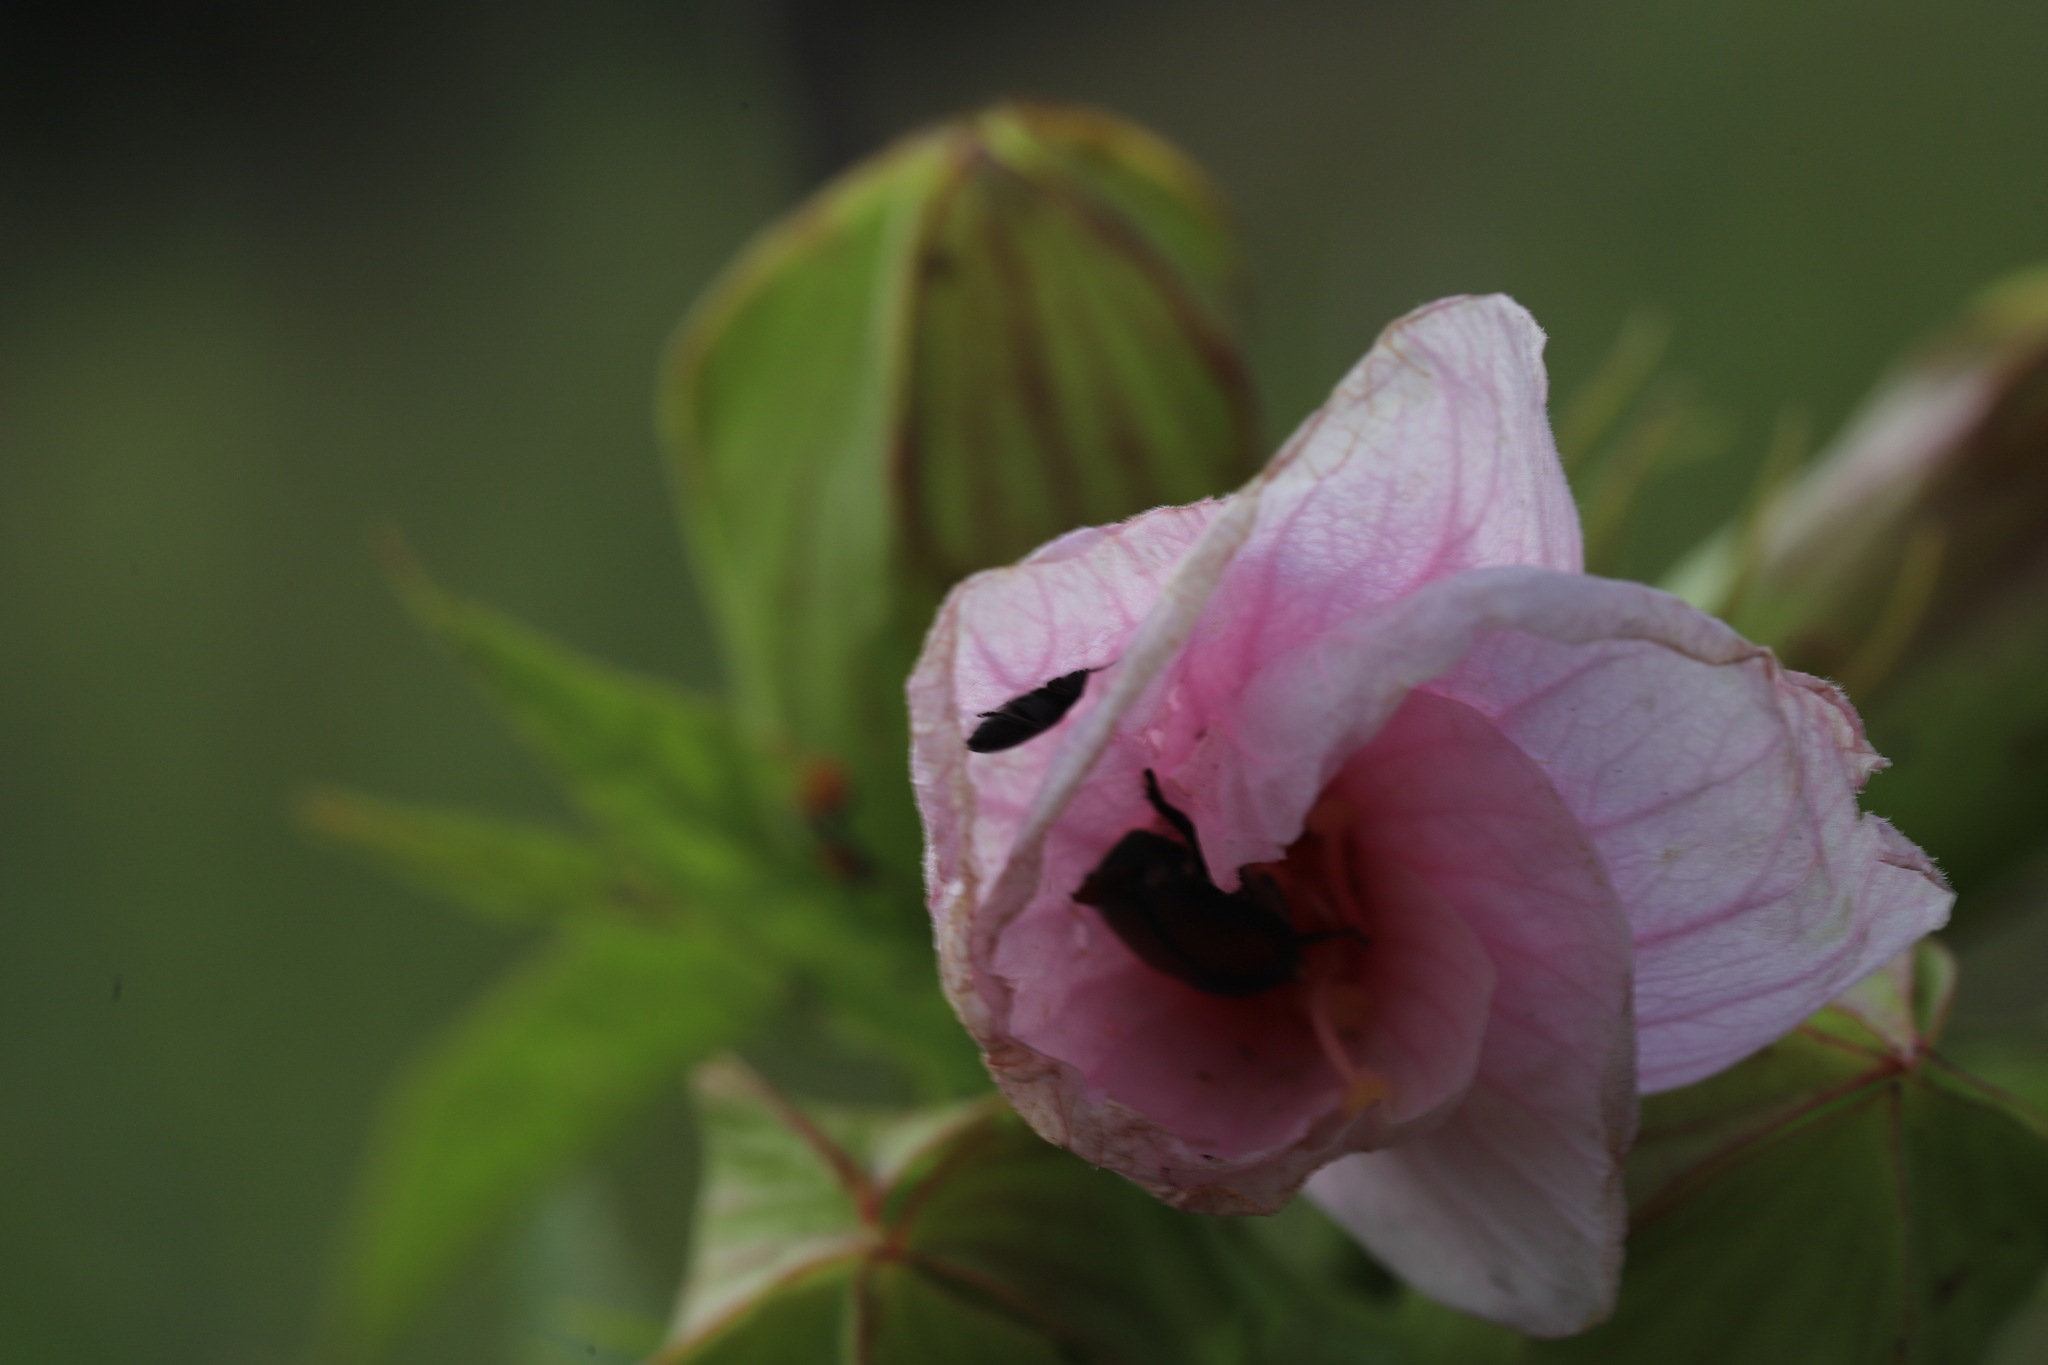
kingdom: Plantae
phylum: Tracheophyta
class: Magnoliopsida
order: Malvales
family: Malvaceae
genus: Hibiscus
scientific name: Hibiscus laevis
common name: Scarlet rose-mallow
